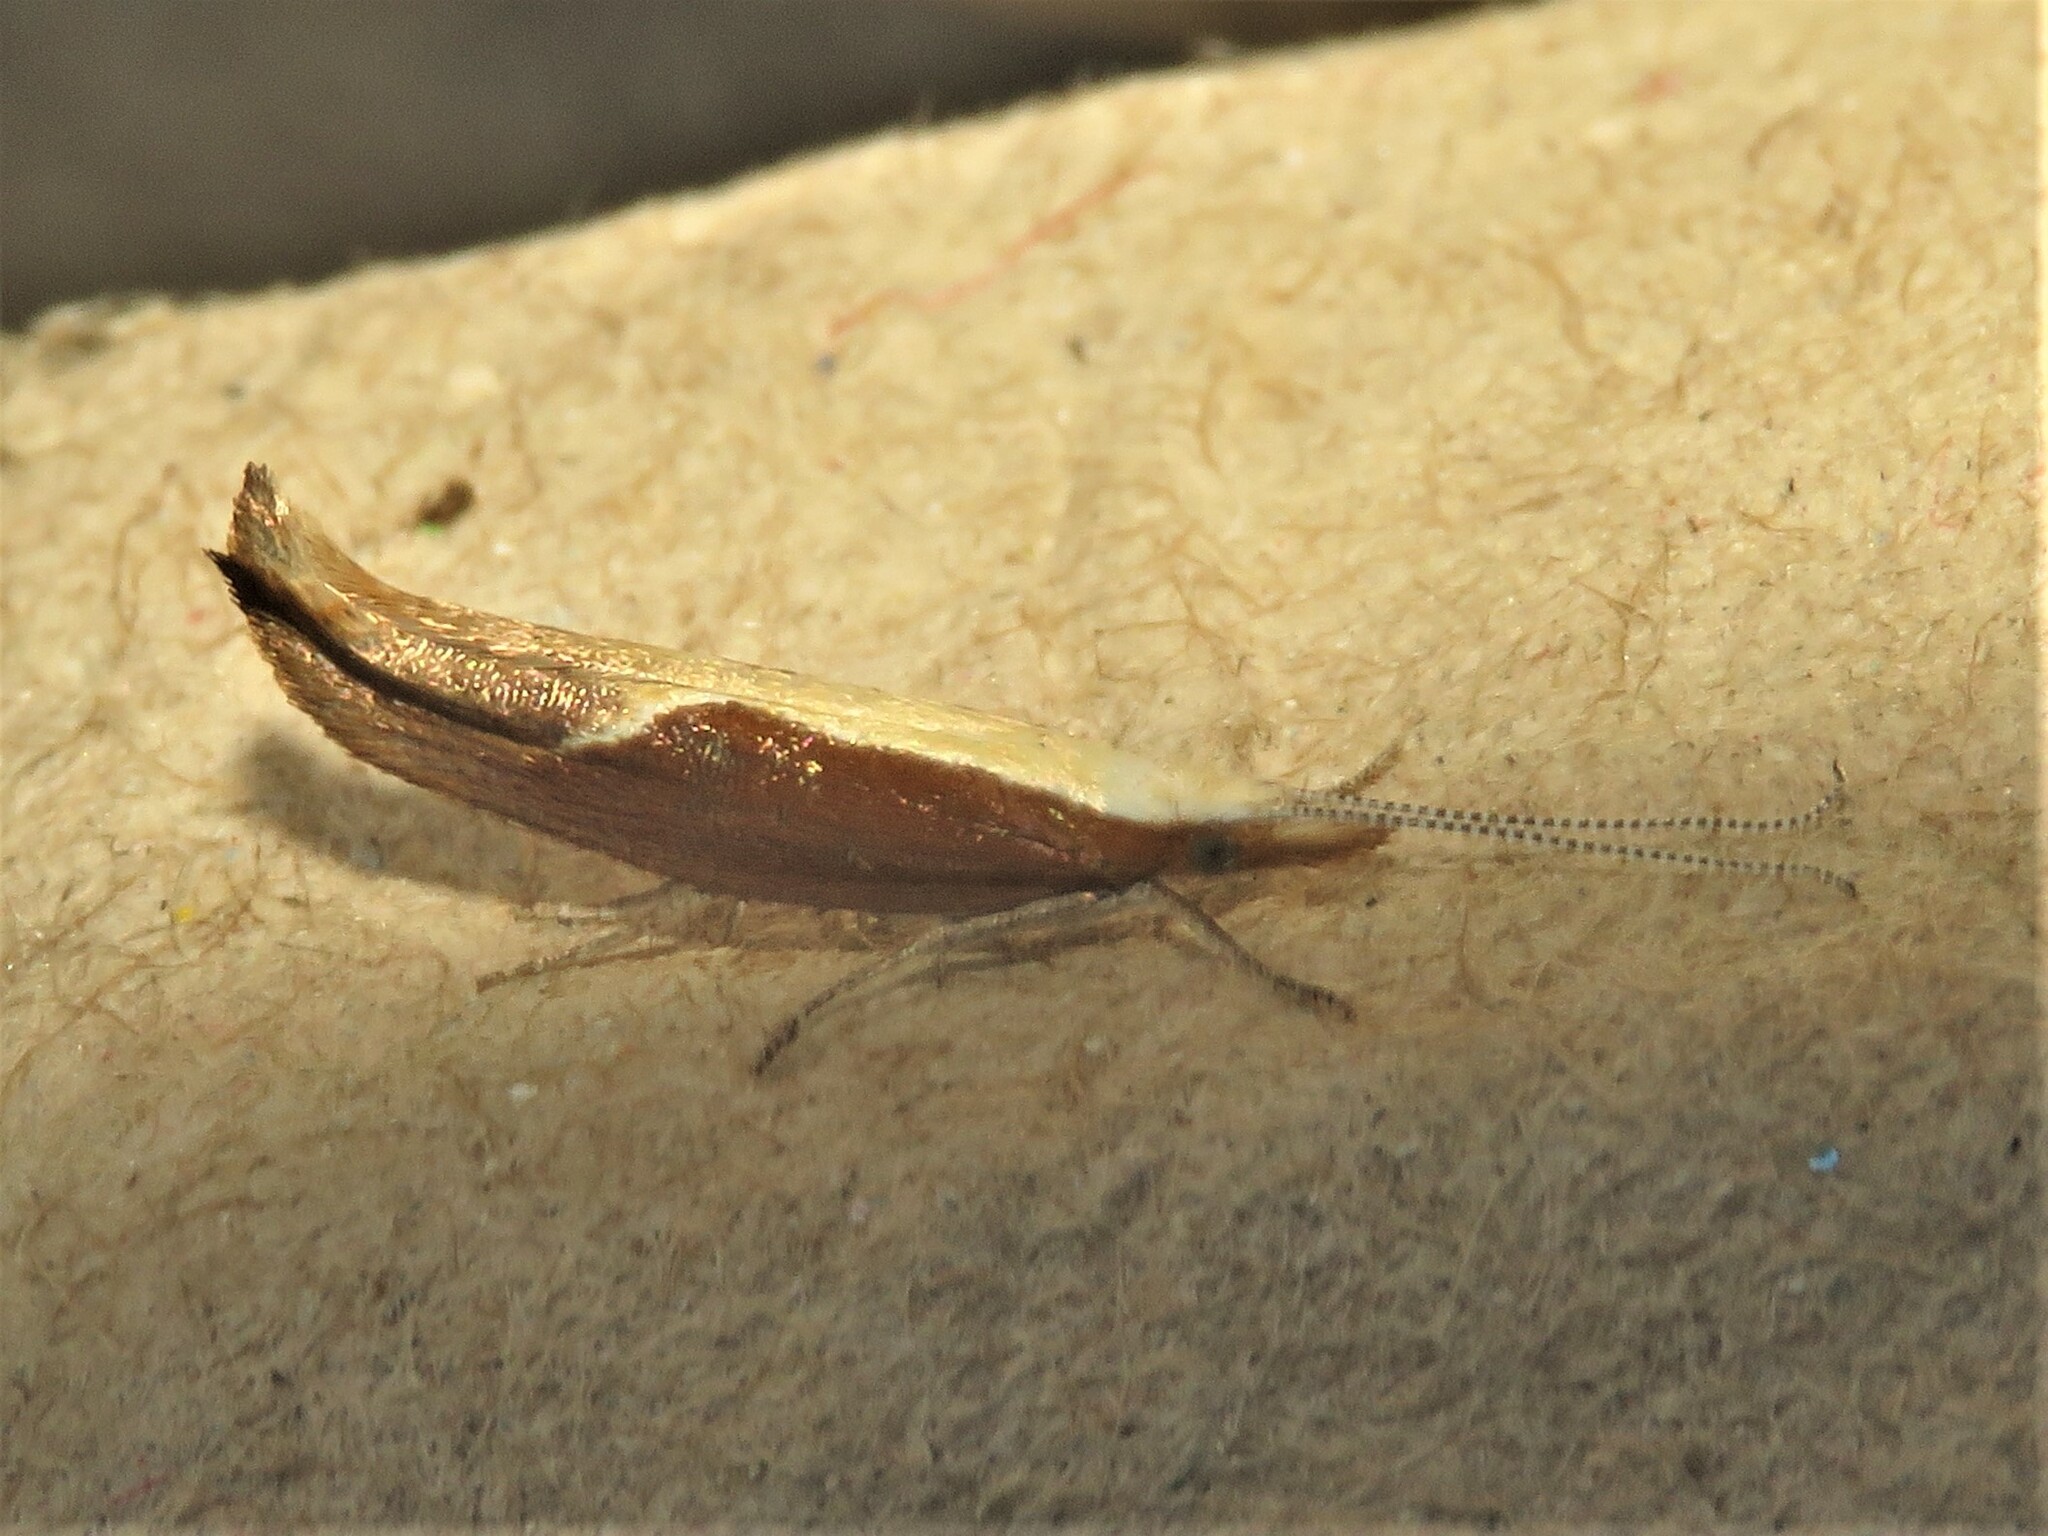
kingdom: Animalia
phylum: Arthropoda
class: Insecta
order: Lepidoptera
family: Ypsolophidae
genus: Ypsolopha
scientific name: Ypsolopha dentella
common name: Honeysuckle moth
